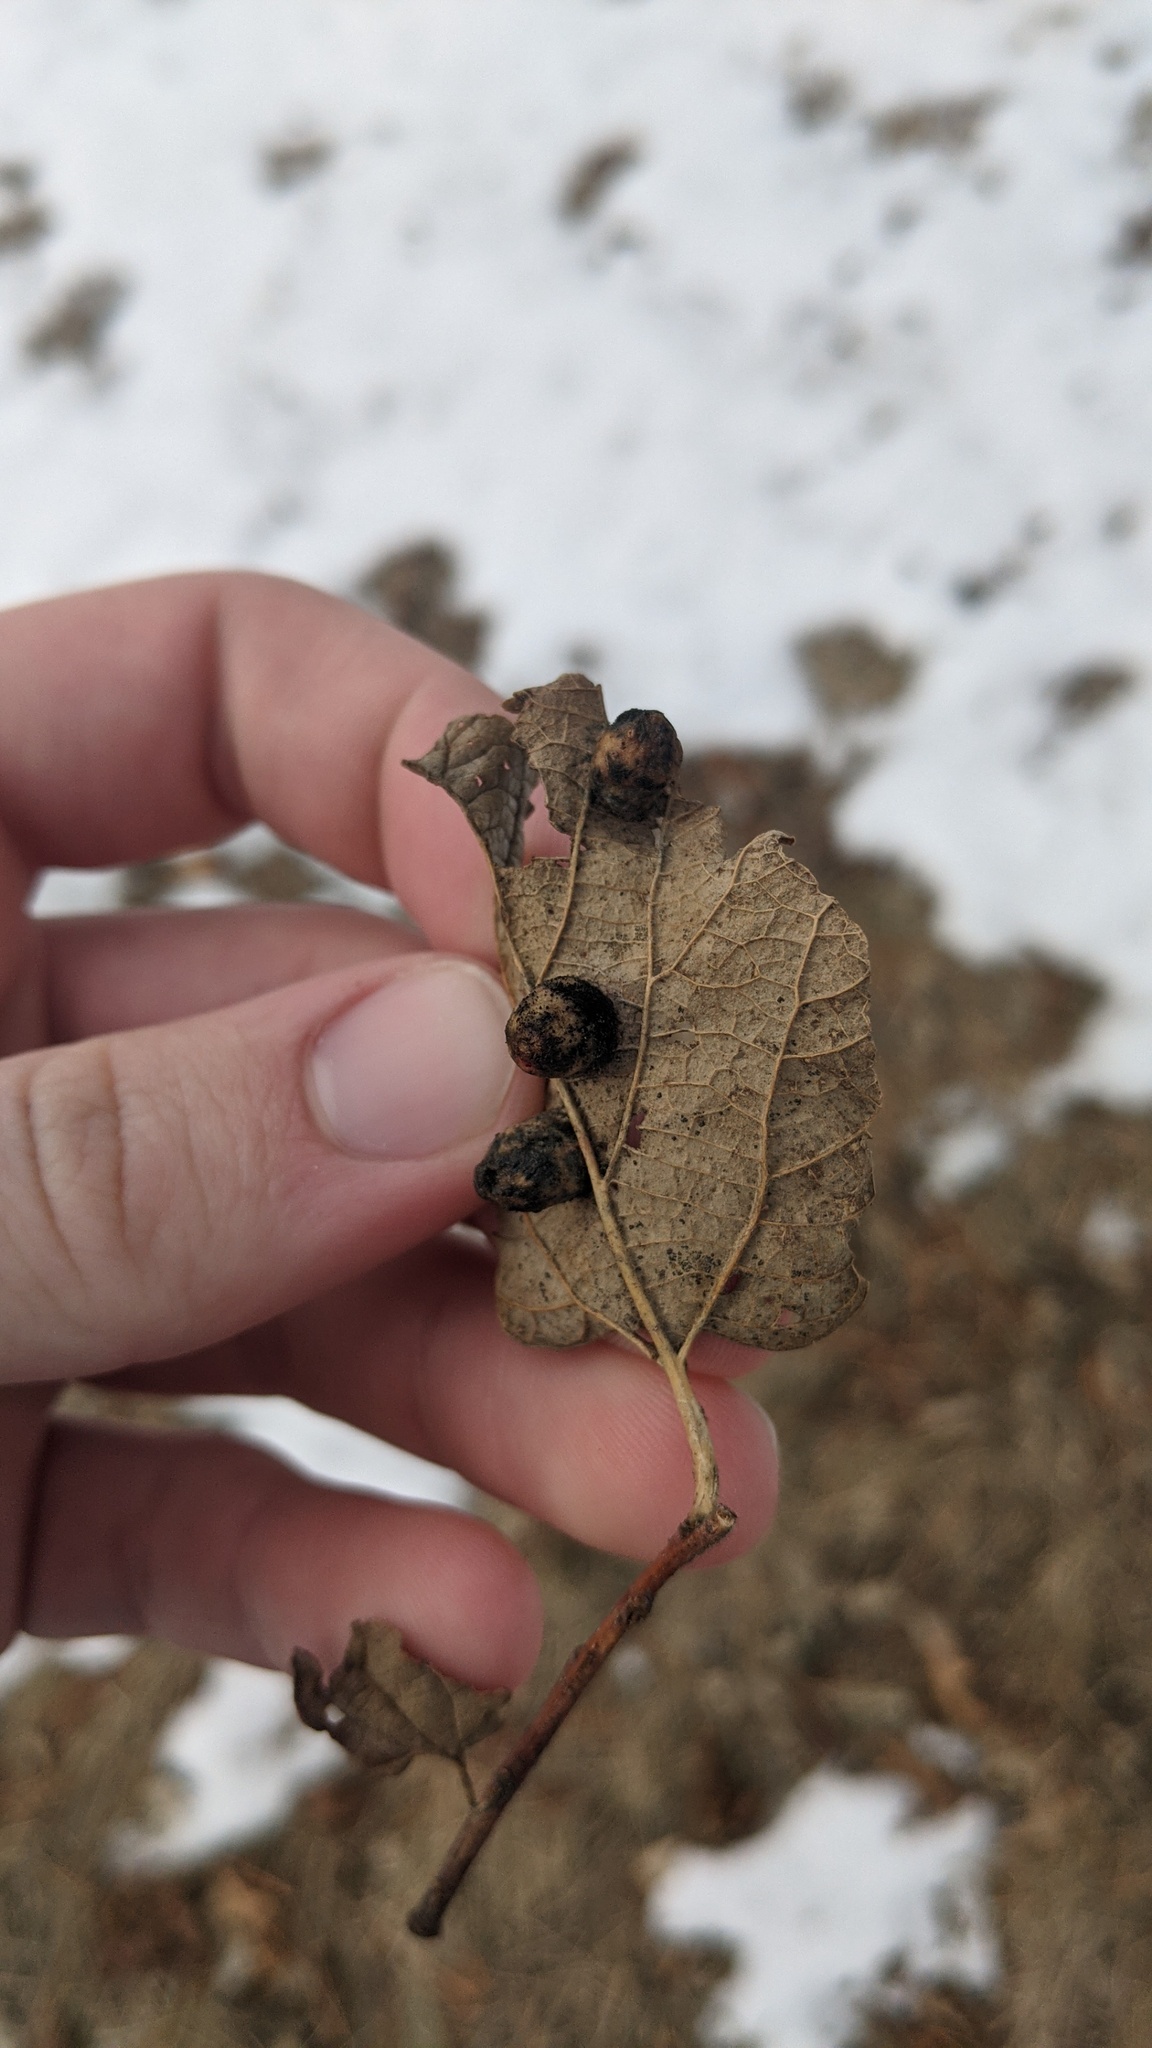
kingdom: Animalia
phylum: Arthropoda
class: Insecta
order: Hemiptera
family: Aphalaridae
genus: Pachypsylla
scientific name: Pachypsylla celtidismamma
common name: Hackberry nipplegall psyllid
